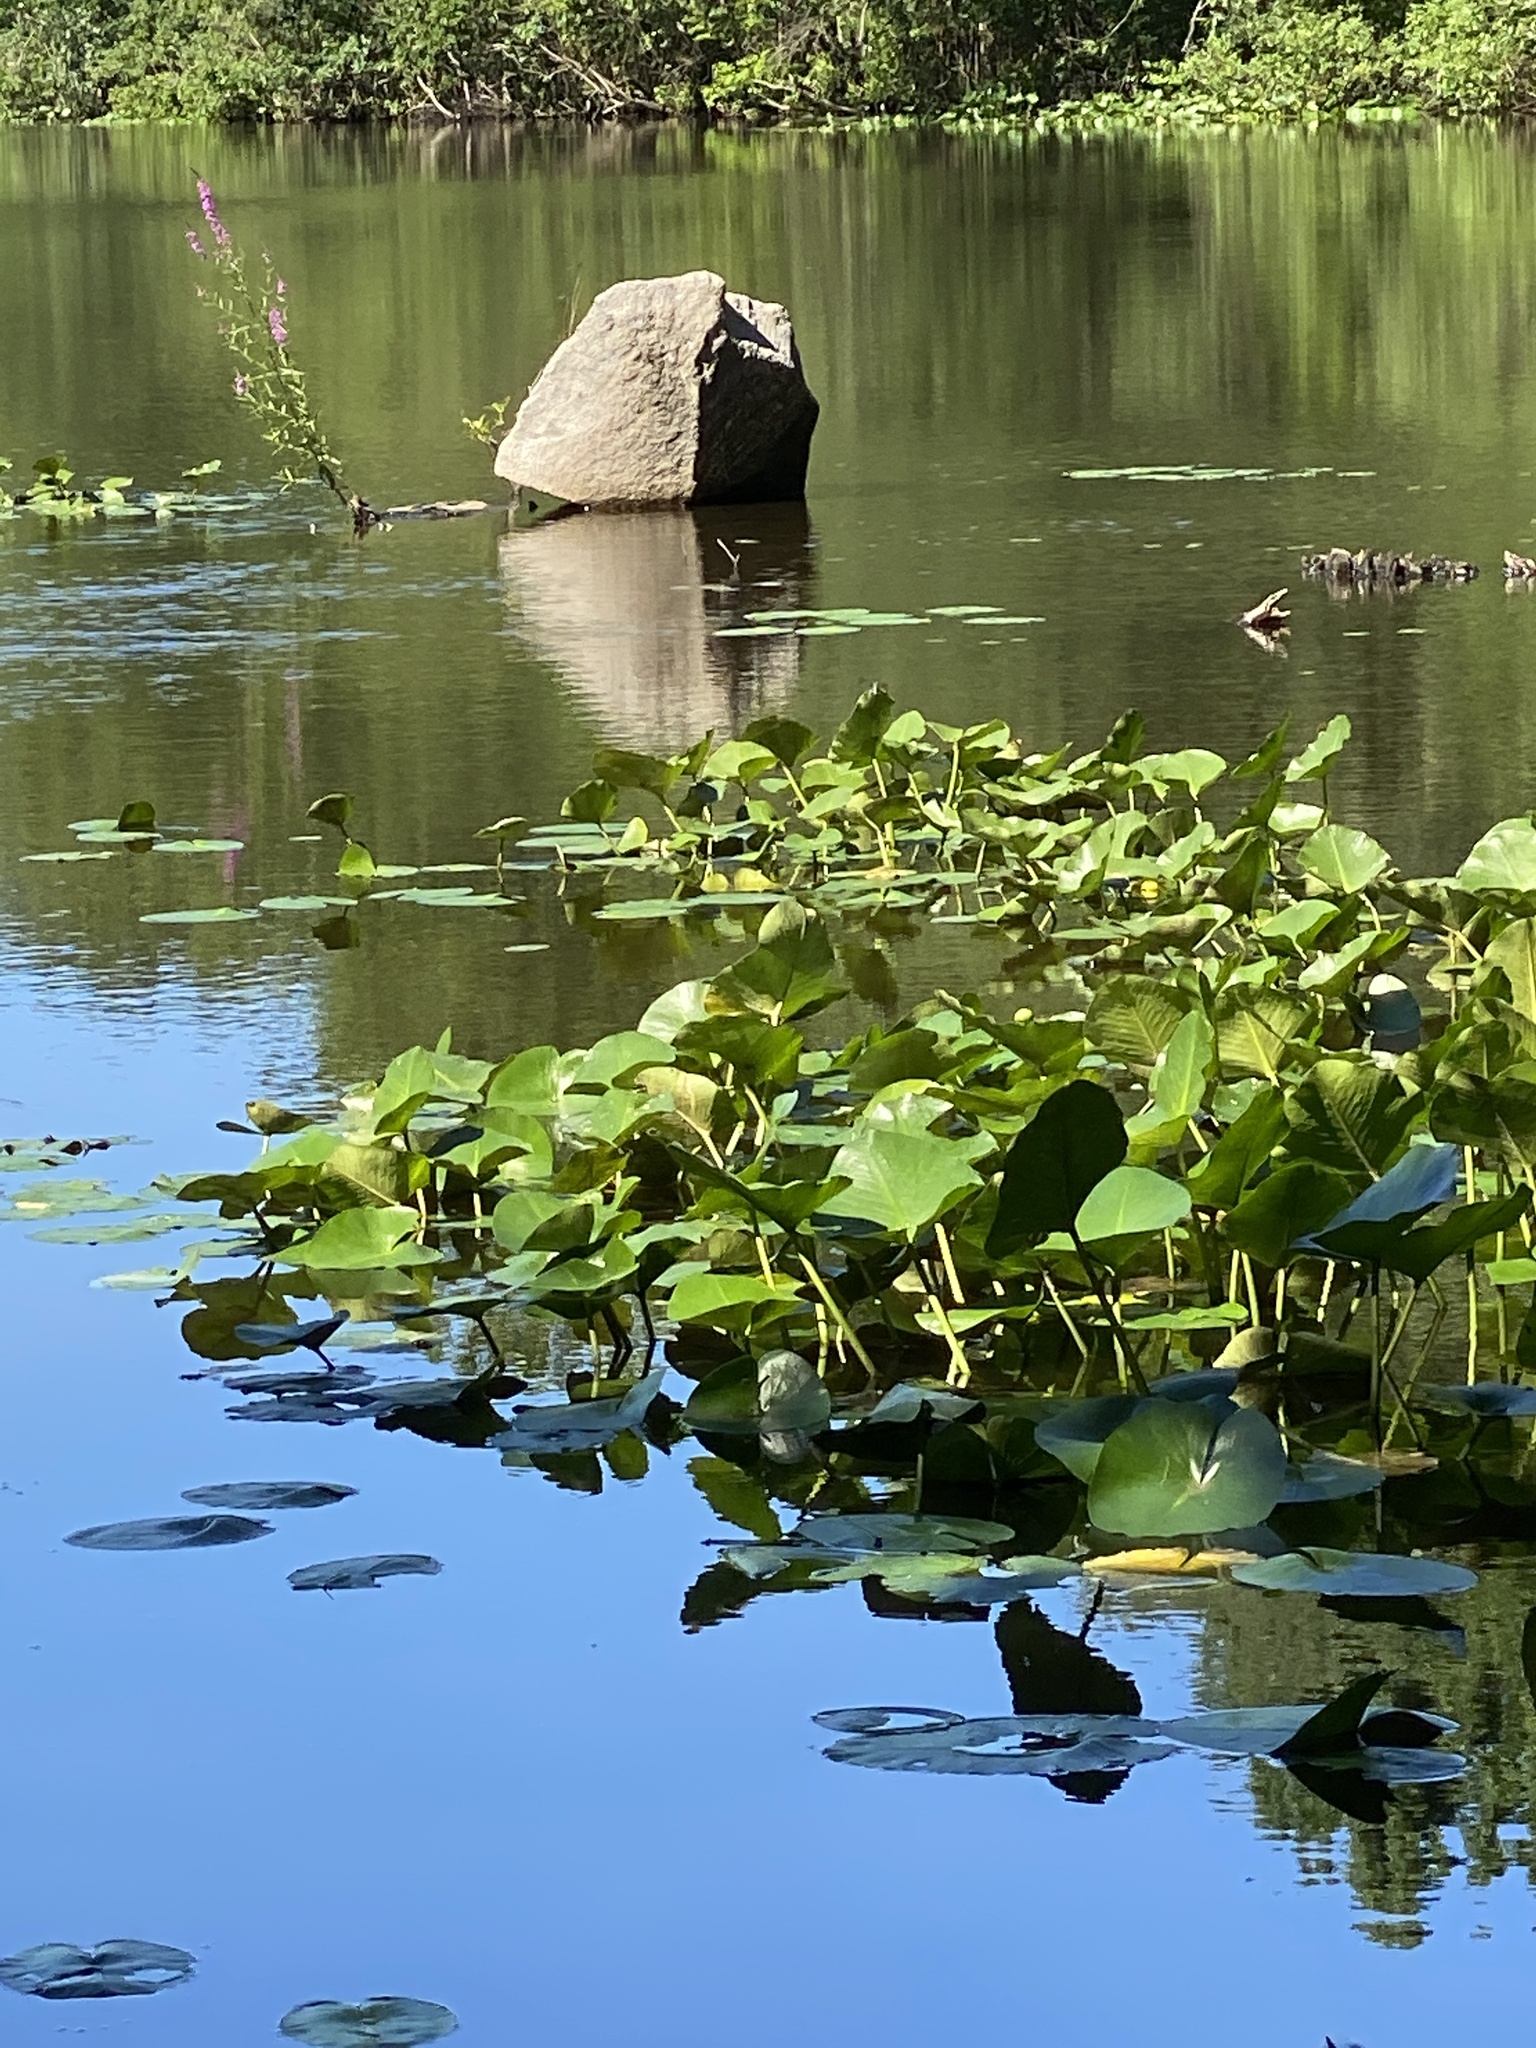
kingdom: Plantae
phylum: Tracheophyta
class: Magnoliopsida
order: Nymphaeales
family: Nymphaeaceae
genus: Nuphar
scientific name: Nuphar advena
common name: Spatter-dock
